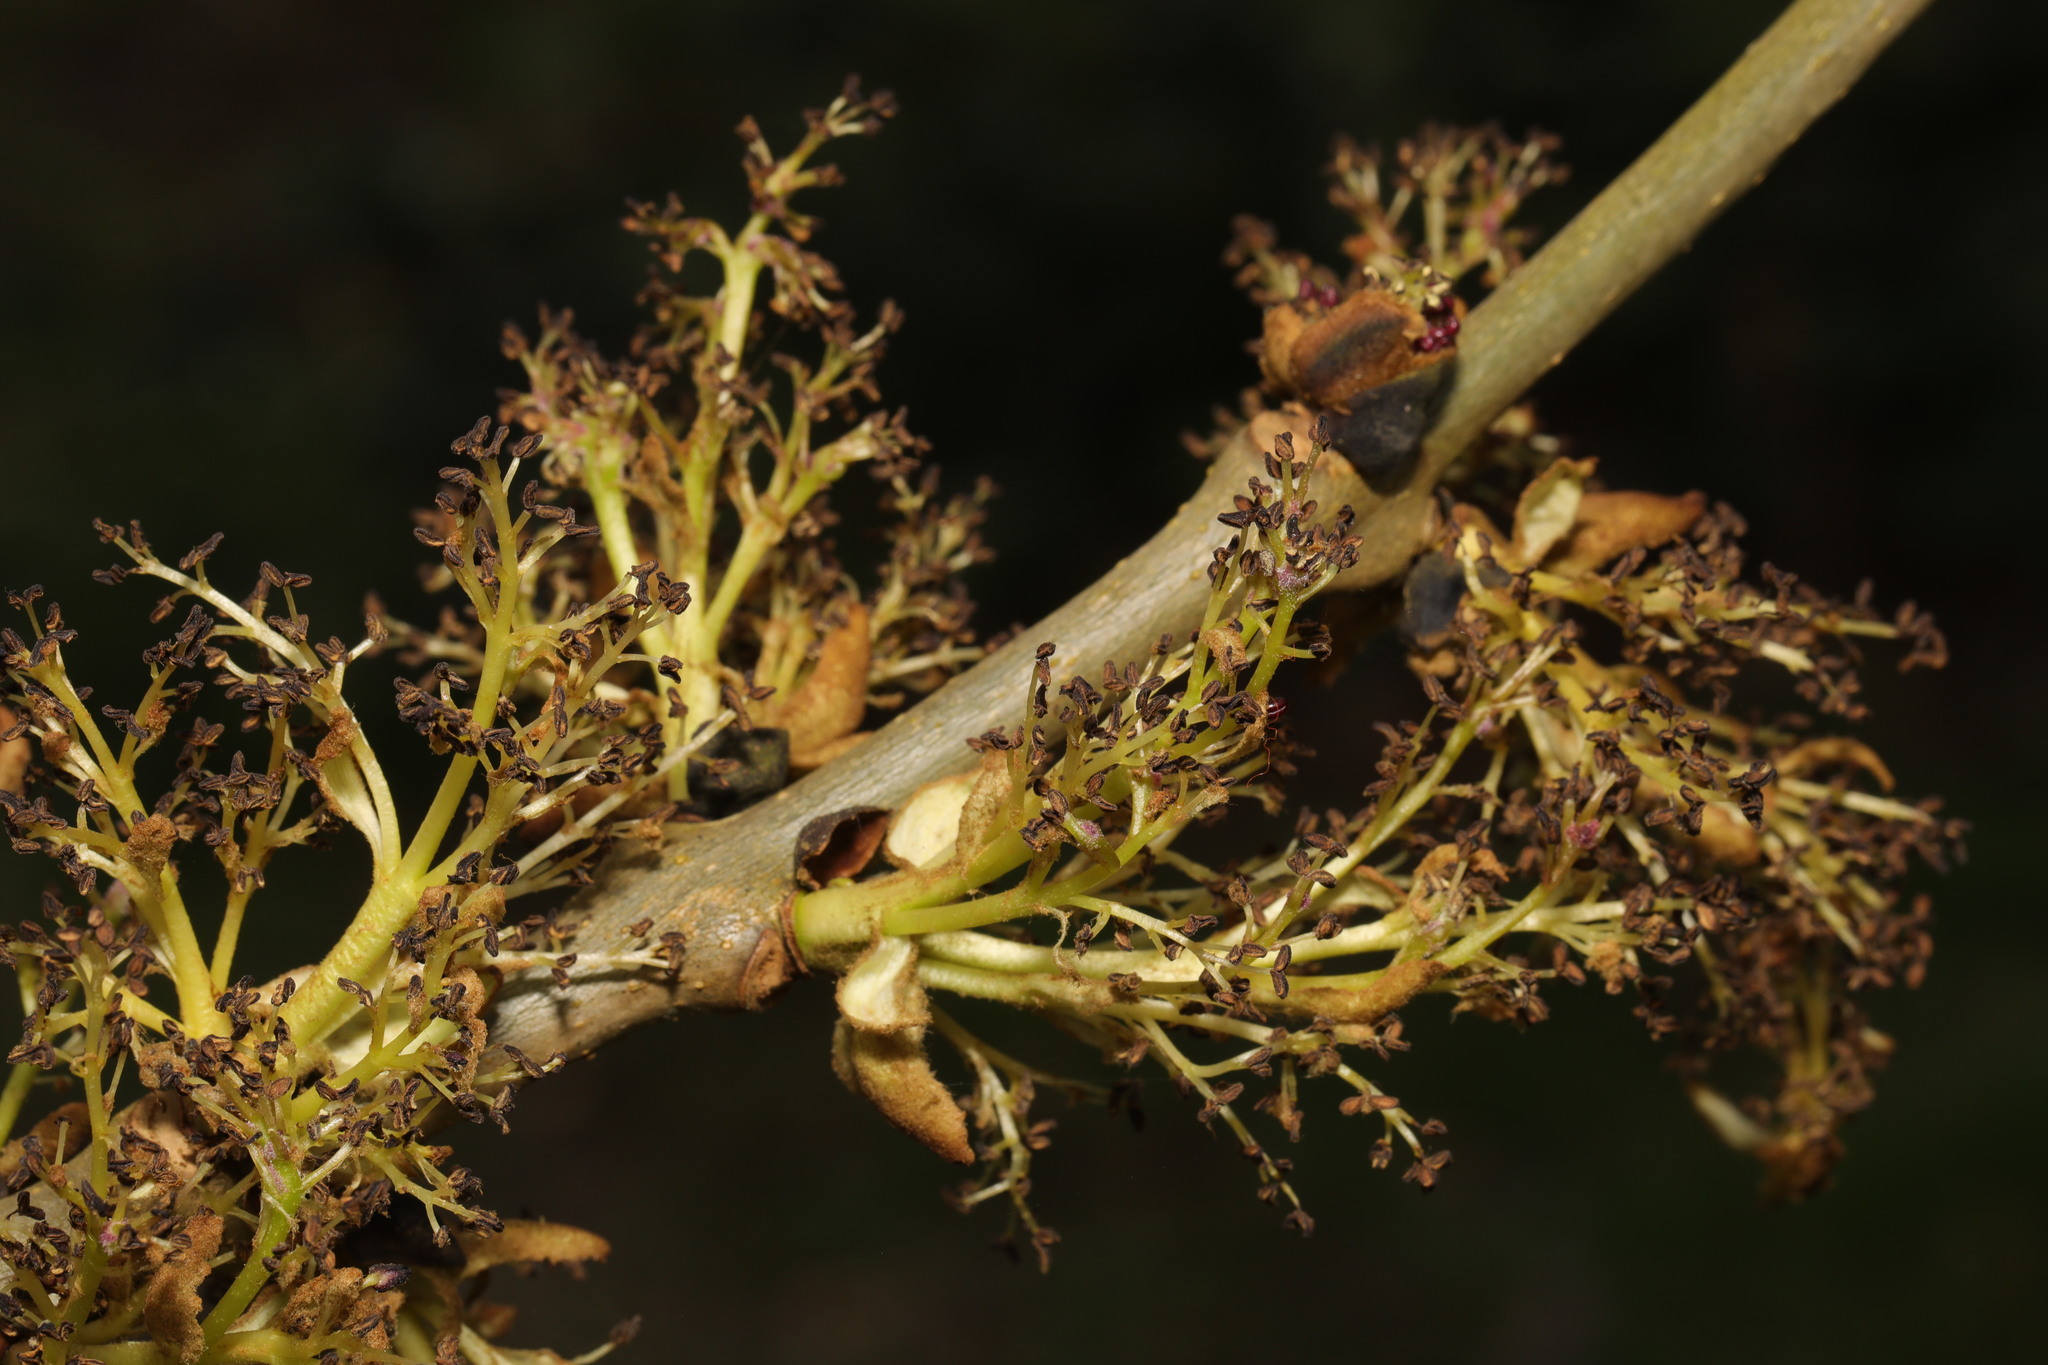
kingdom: Plantae
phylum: Tracheophyta
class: Magnoliopsida
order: Lamiales
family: Oleaceae
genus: Fraxinus
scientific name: Fraxinus excelsior
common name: European ash
